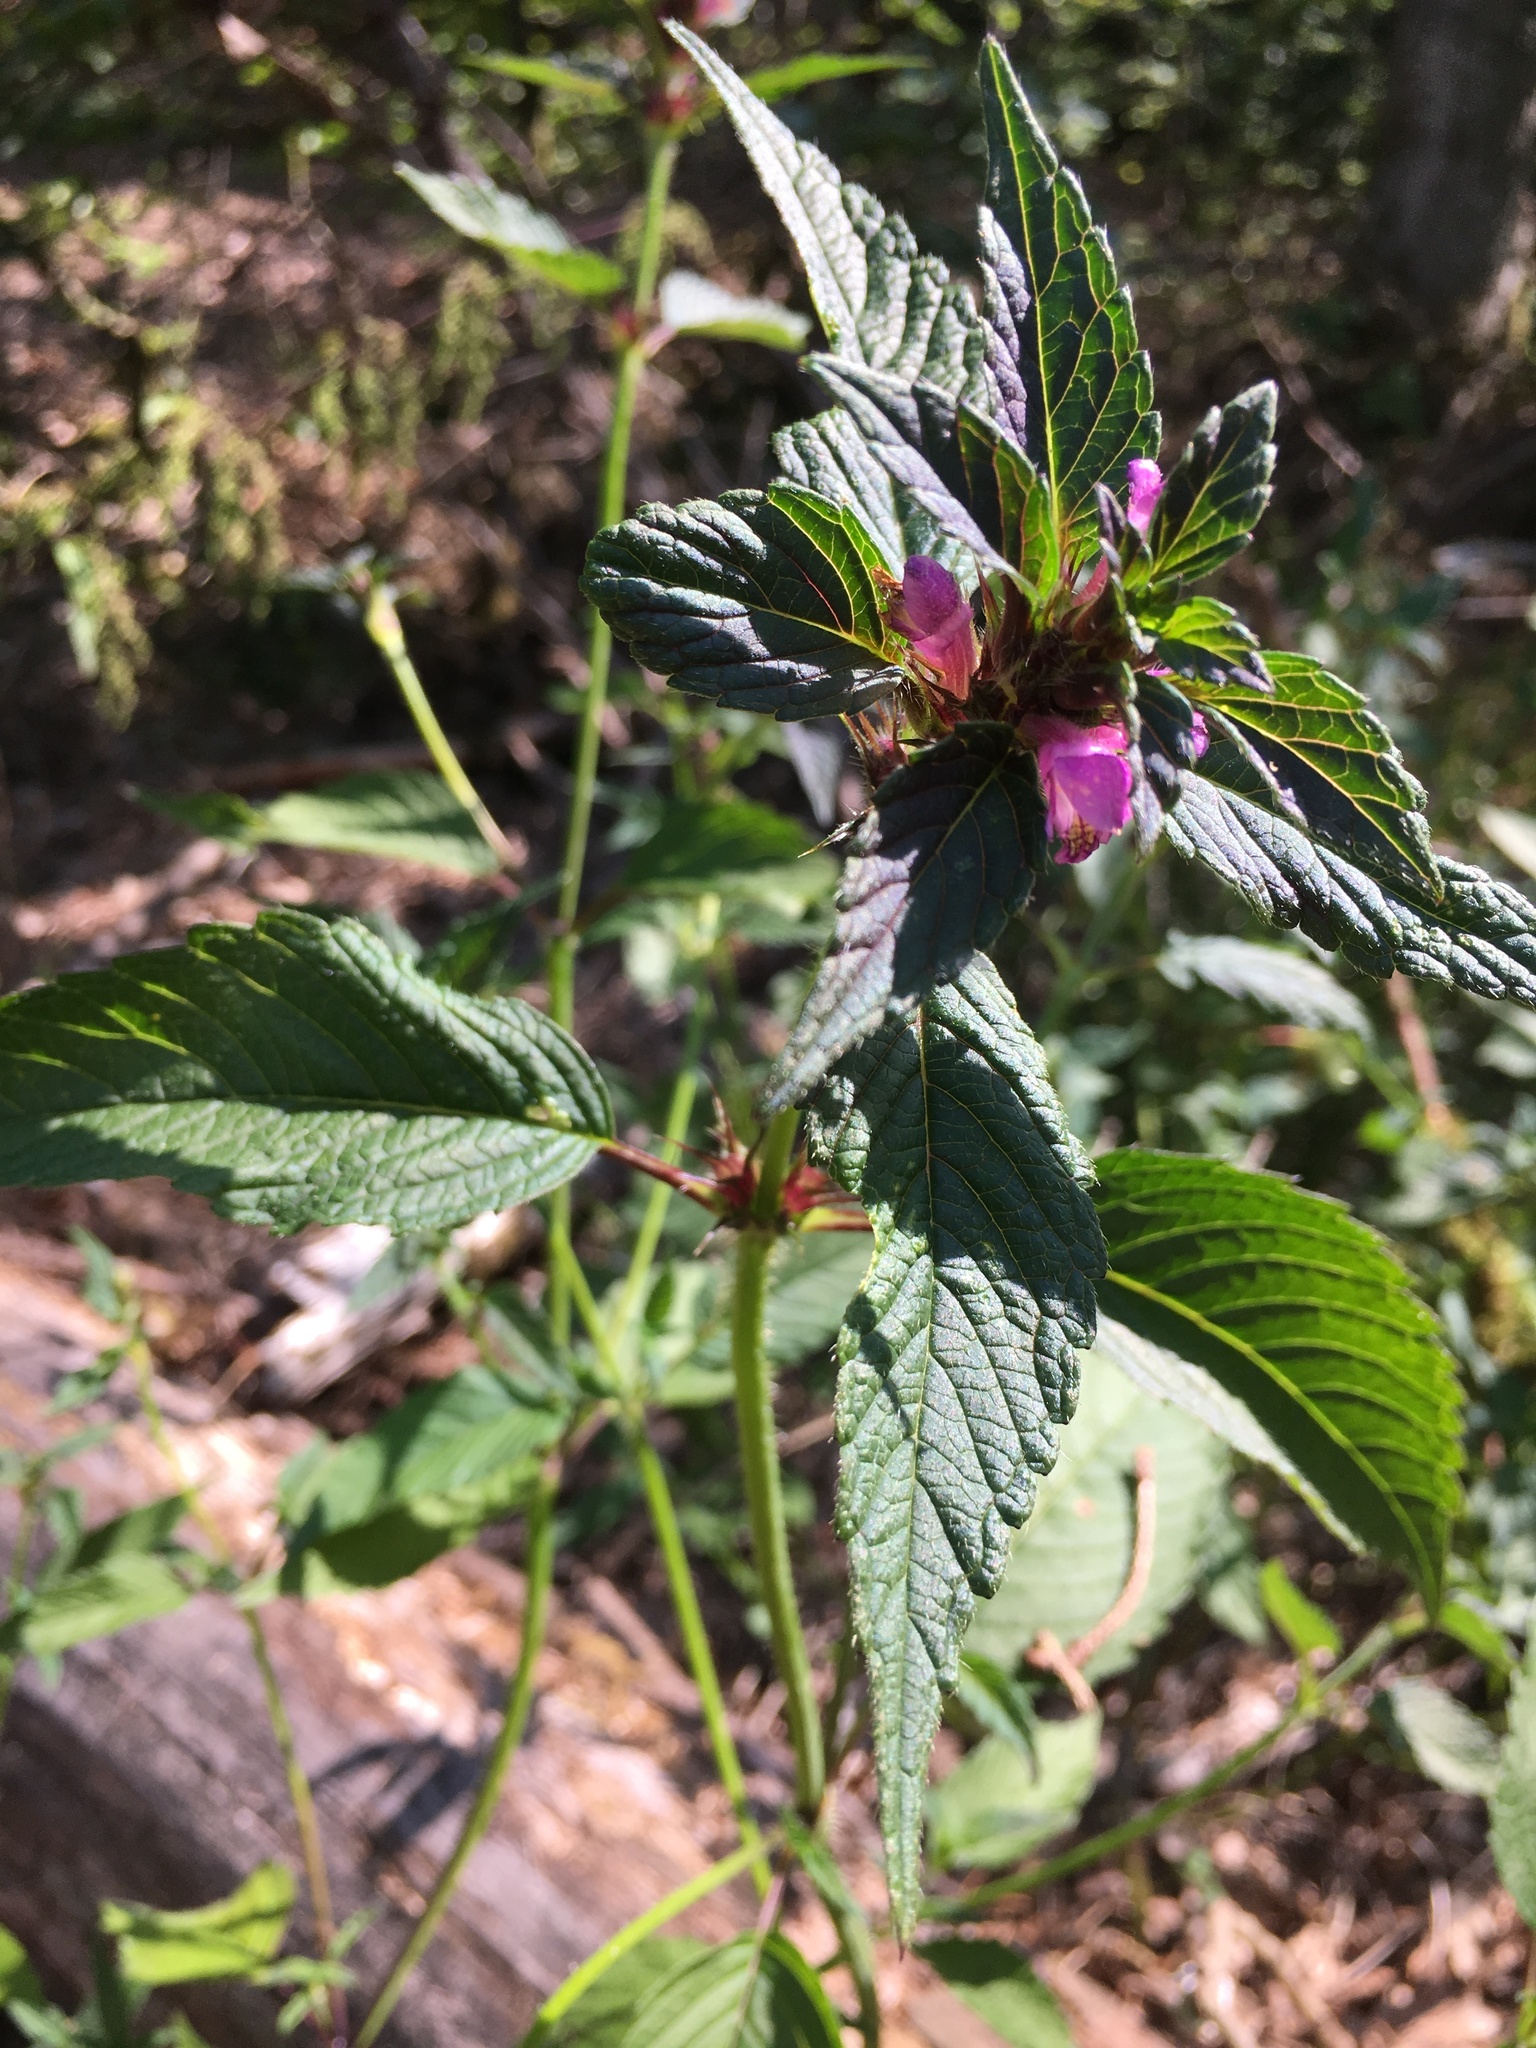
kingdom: Plantae
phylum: Tracheophyta
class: Magnoliopsida
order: Lamiales
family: Lamiaceae
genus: Galeopsis
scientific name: Galeopsis tetrahit
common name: Common hemp-nettle
